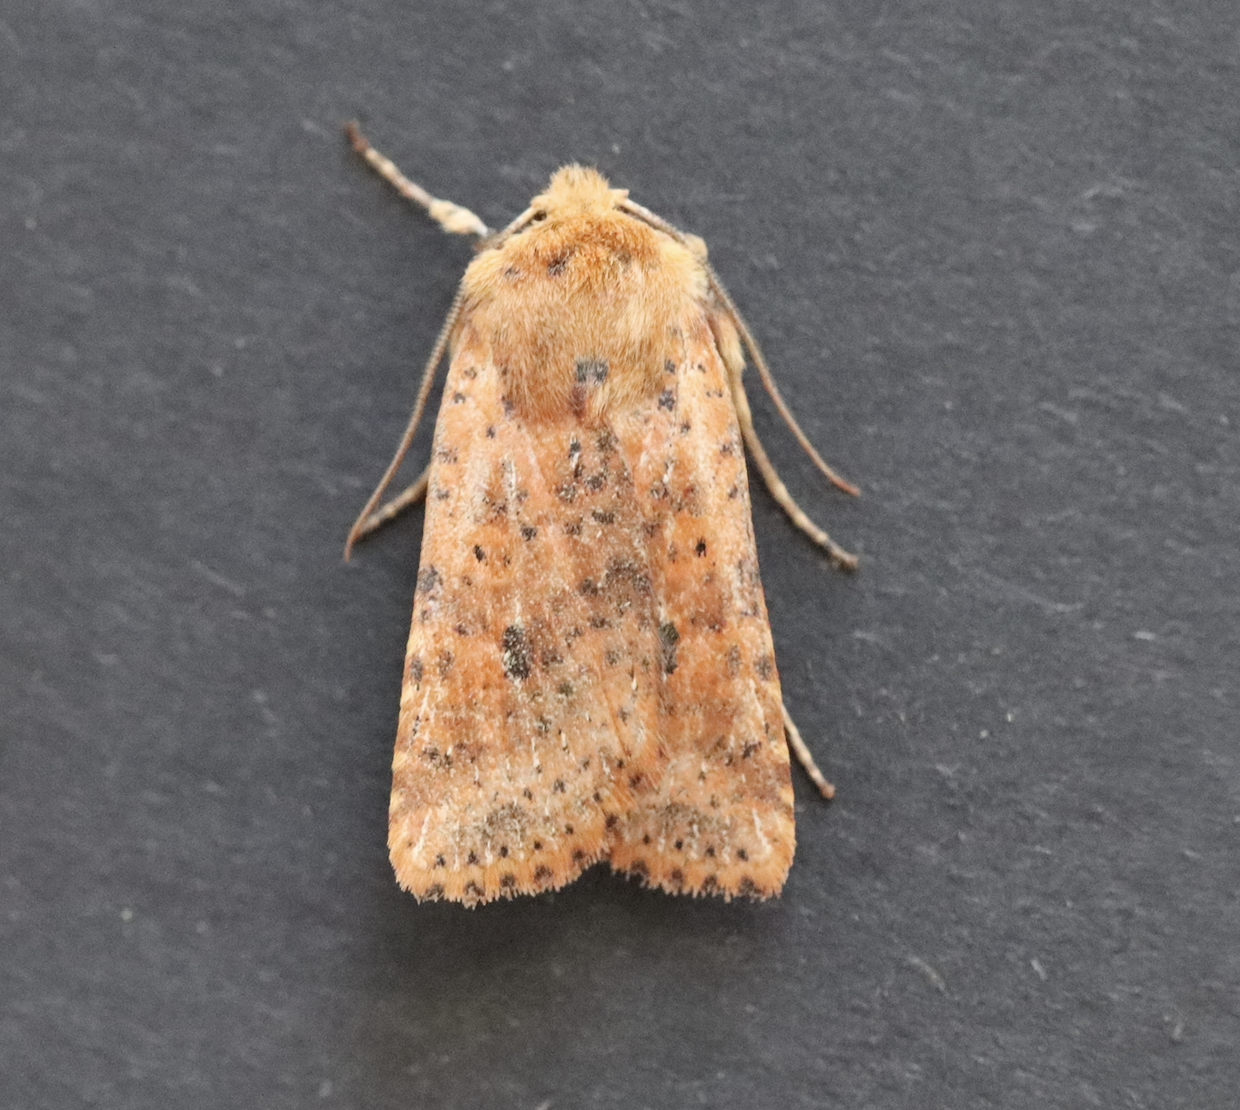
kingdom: Animalia
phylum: Arthropoda
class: Insecta
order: Lepidoptera
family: Noctuidae
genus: Conistra
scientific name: Conistra rubiginea
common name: Dotted chestnut
